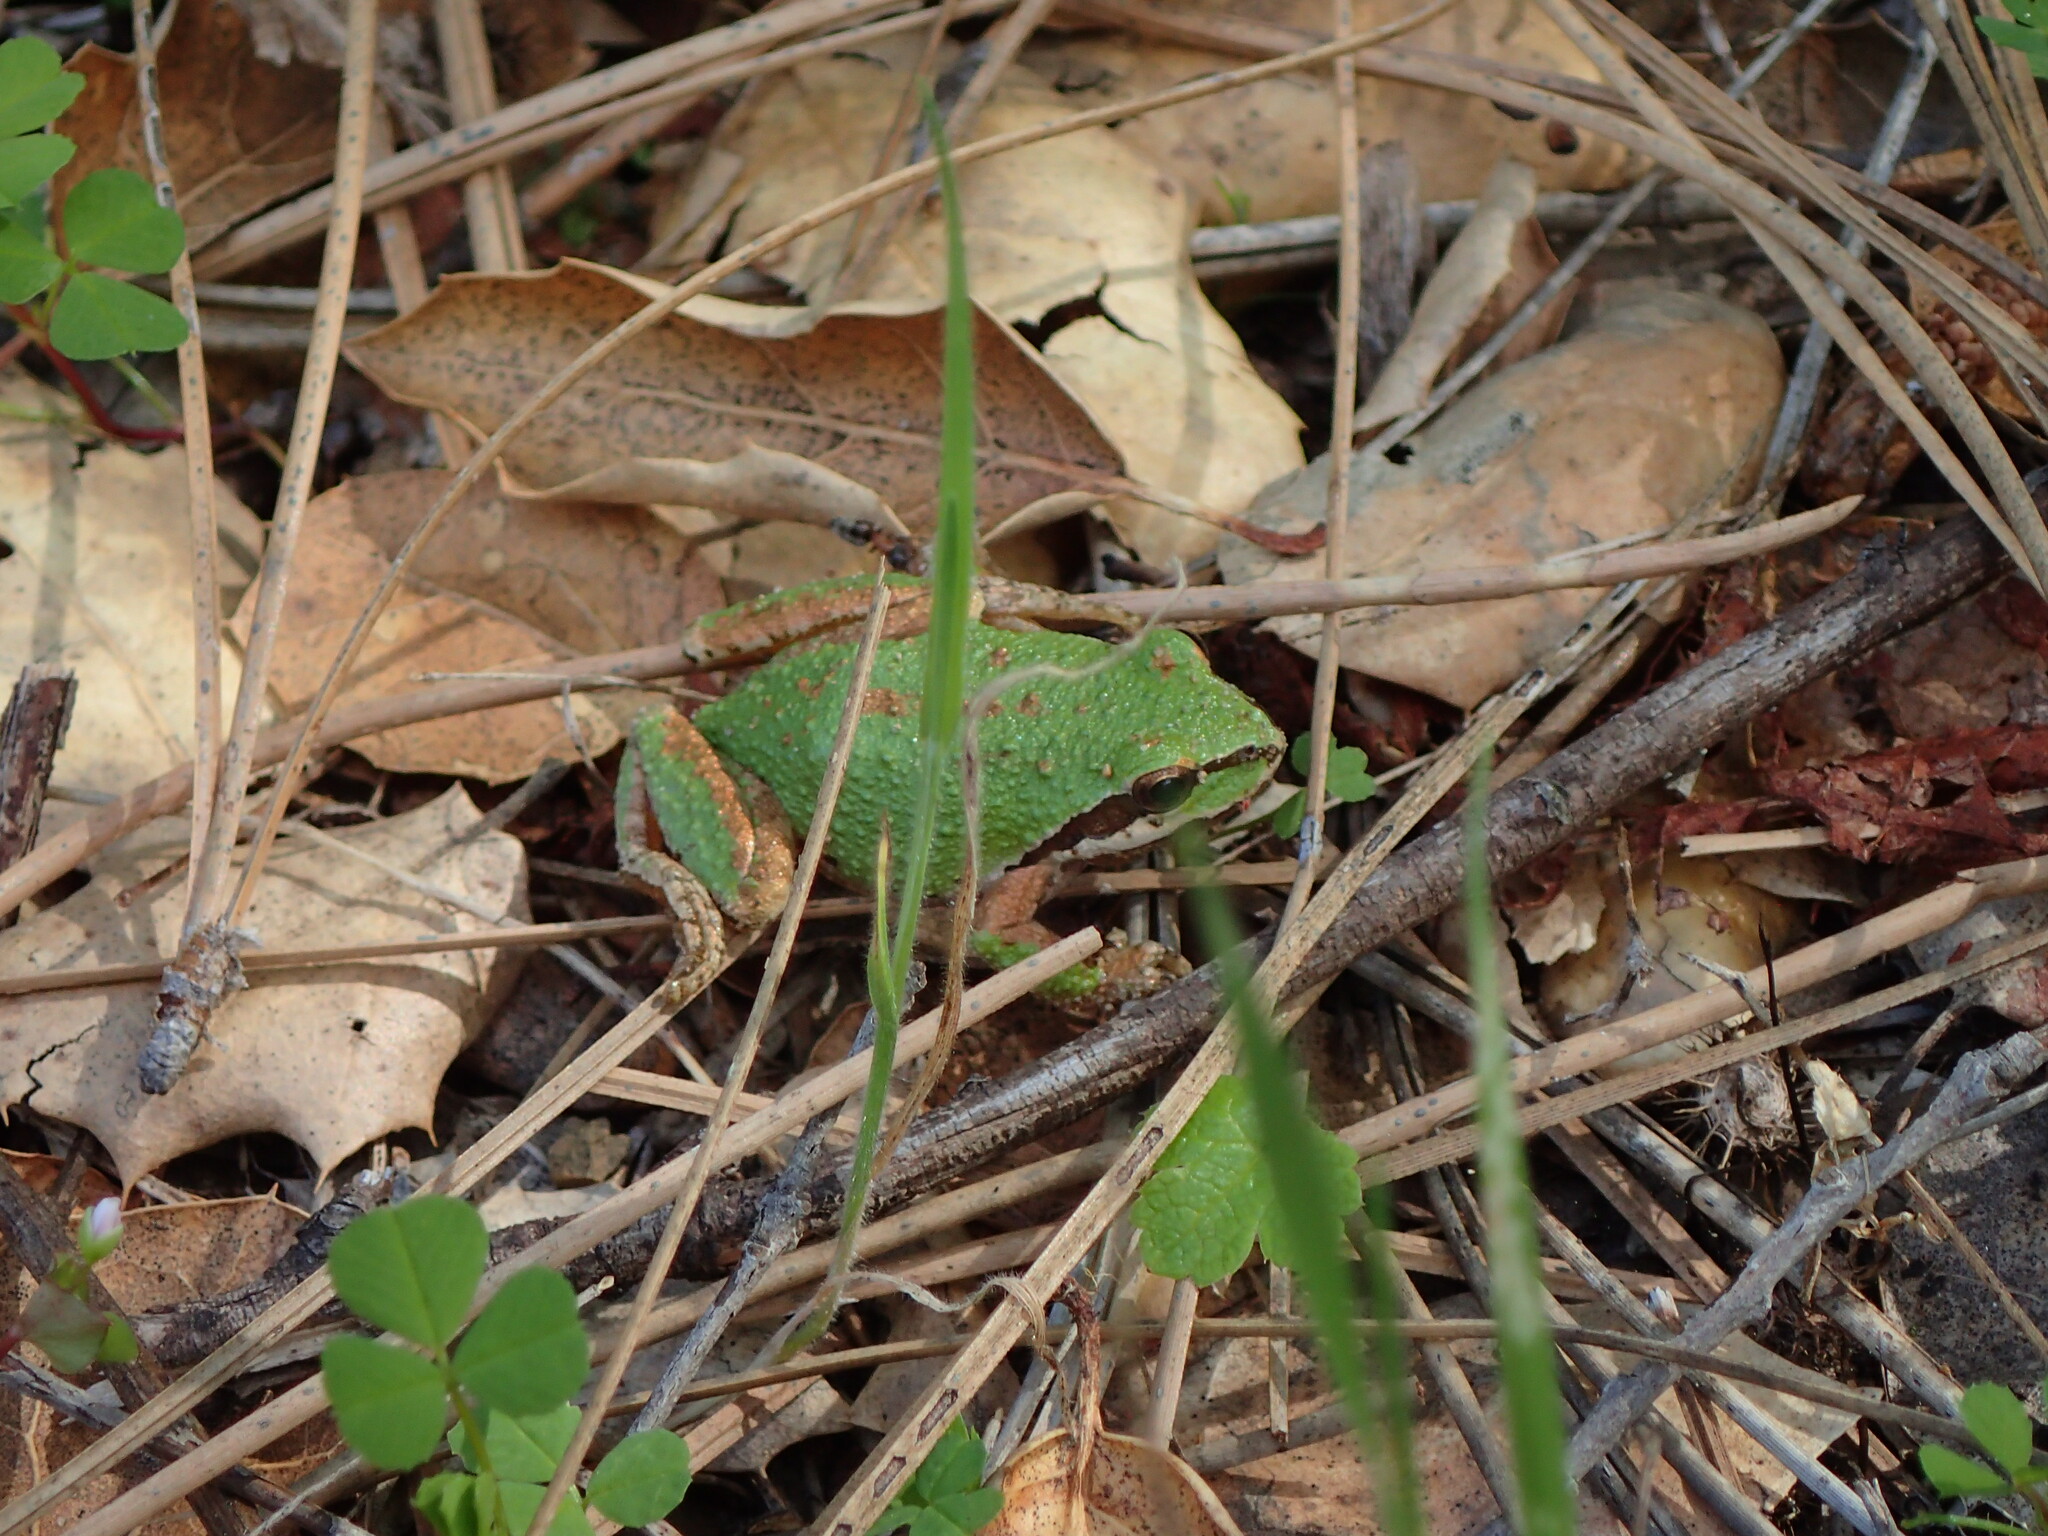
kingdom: Animalia
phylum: Chordata
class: Amphibia
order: Anura
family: Hylidae
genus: Pseudacris
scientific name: Pseudacris regilla
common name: Pacific chorus frog
